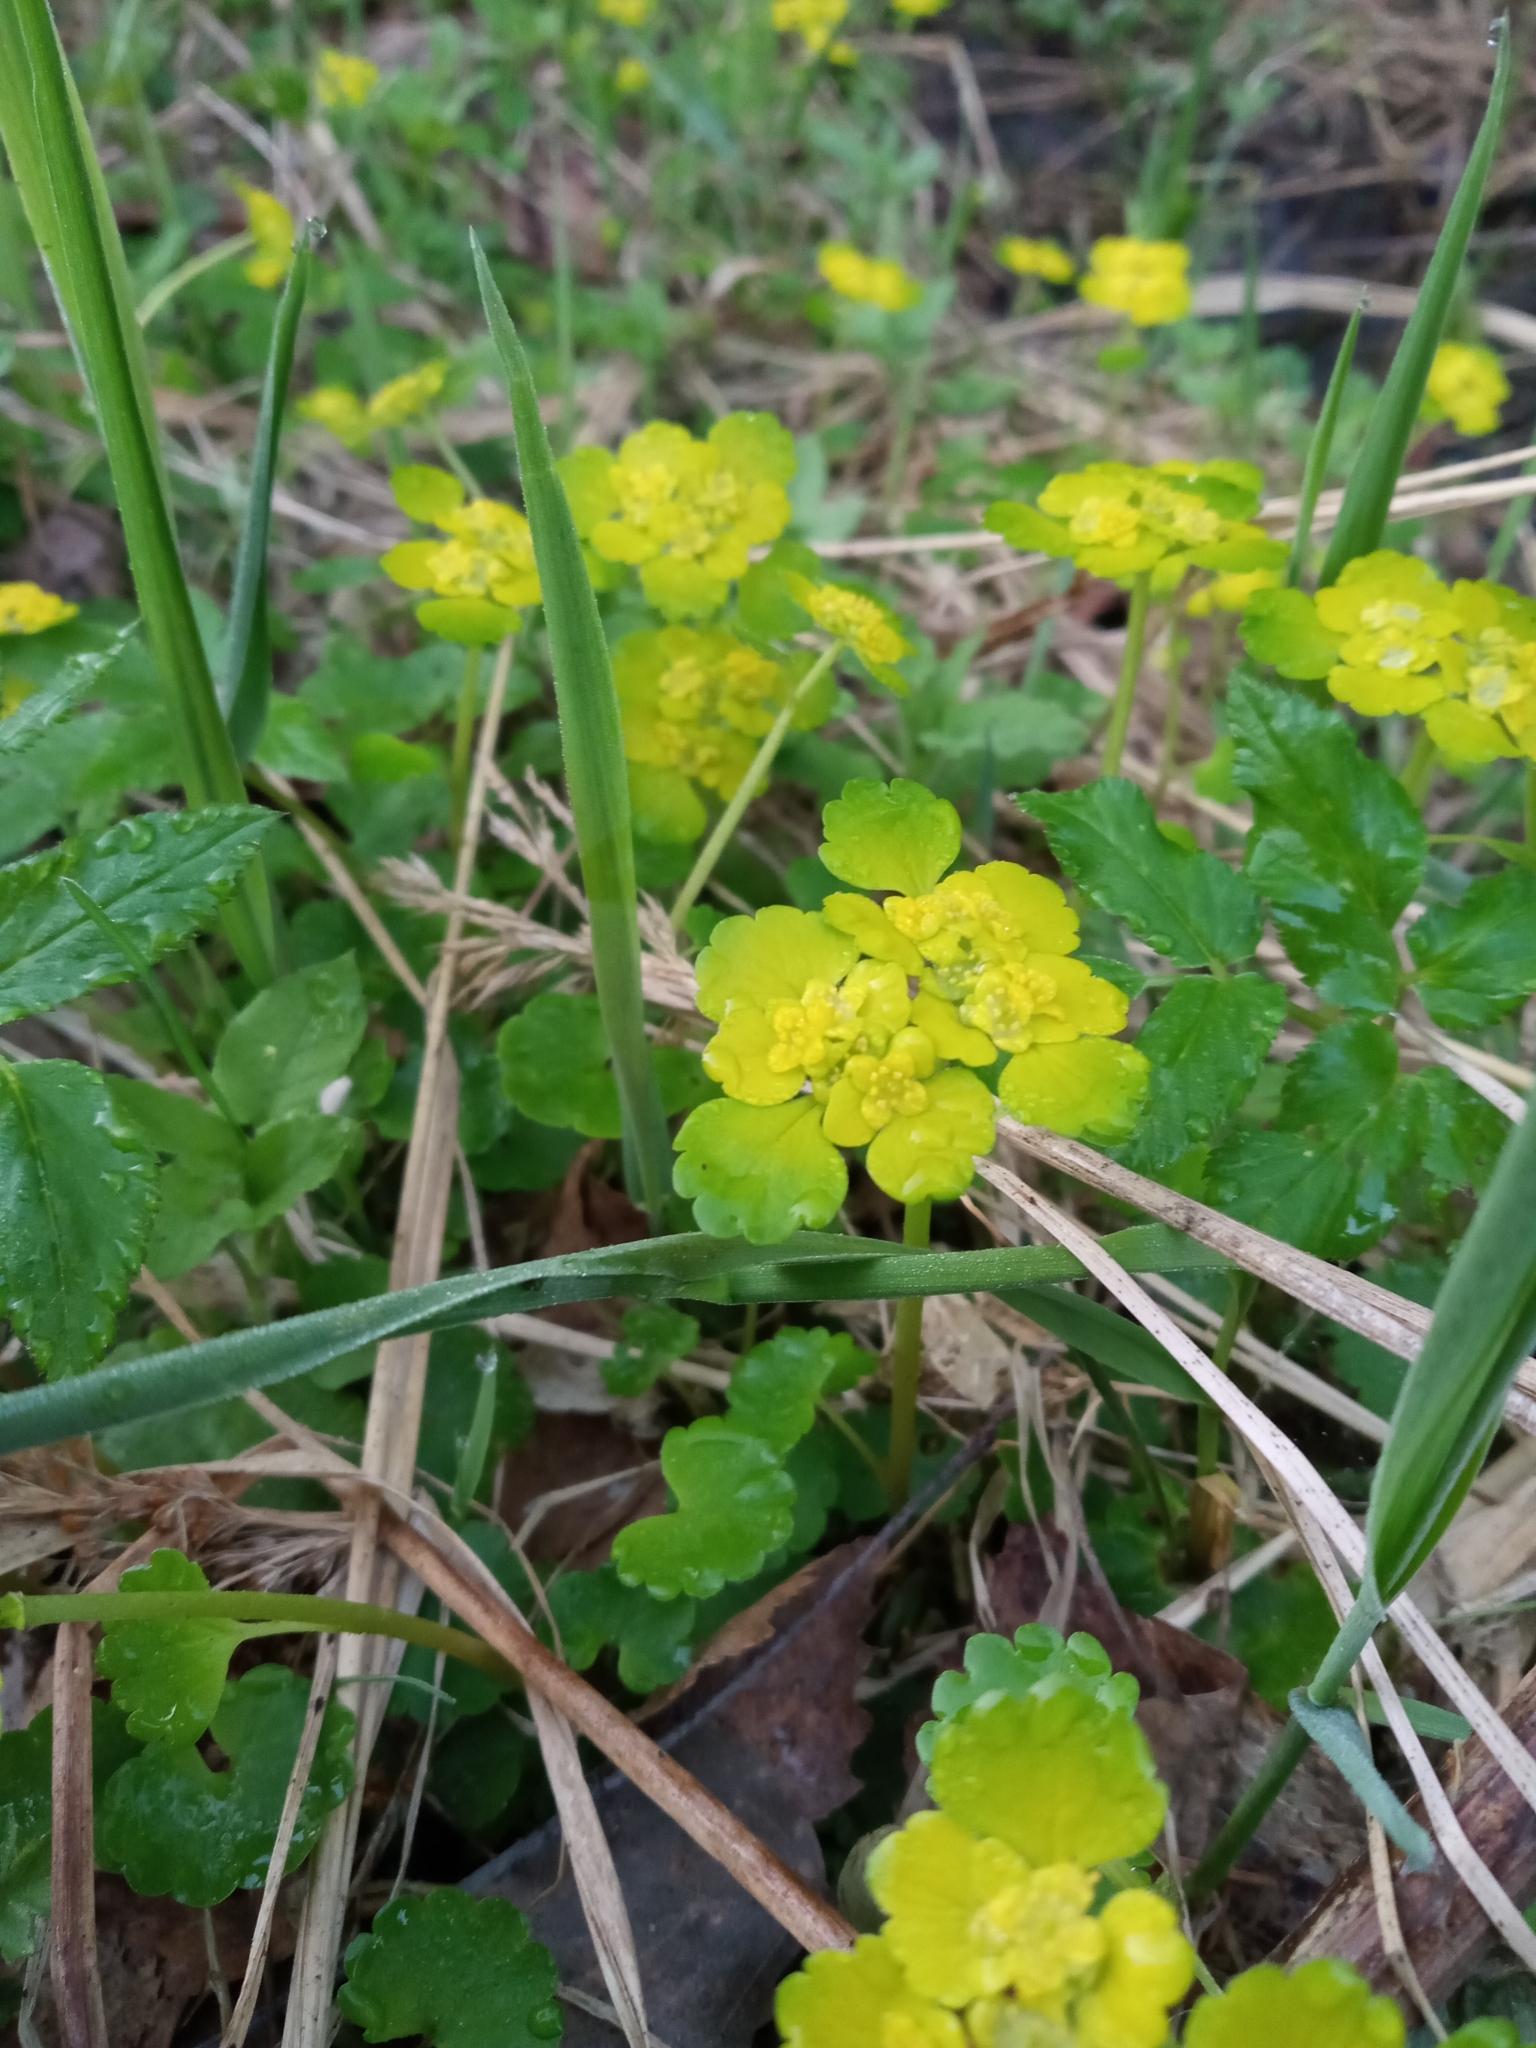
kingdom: Plantae
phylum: Tracheophyta
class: Magnoliopsida
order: Saxifragales
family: Saxifragaceae
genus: Chrysosplenium
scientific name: Chrysosplenium alternifolium
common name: Alternate-leaved golden-saxifrage
